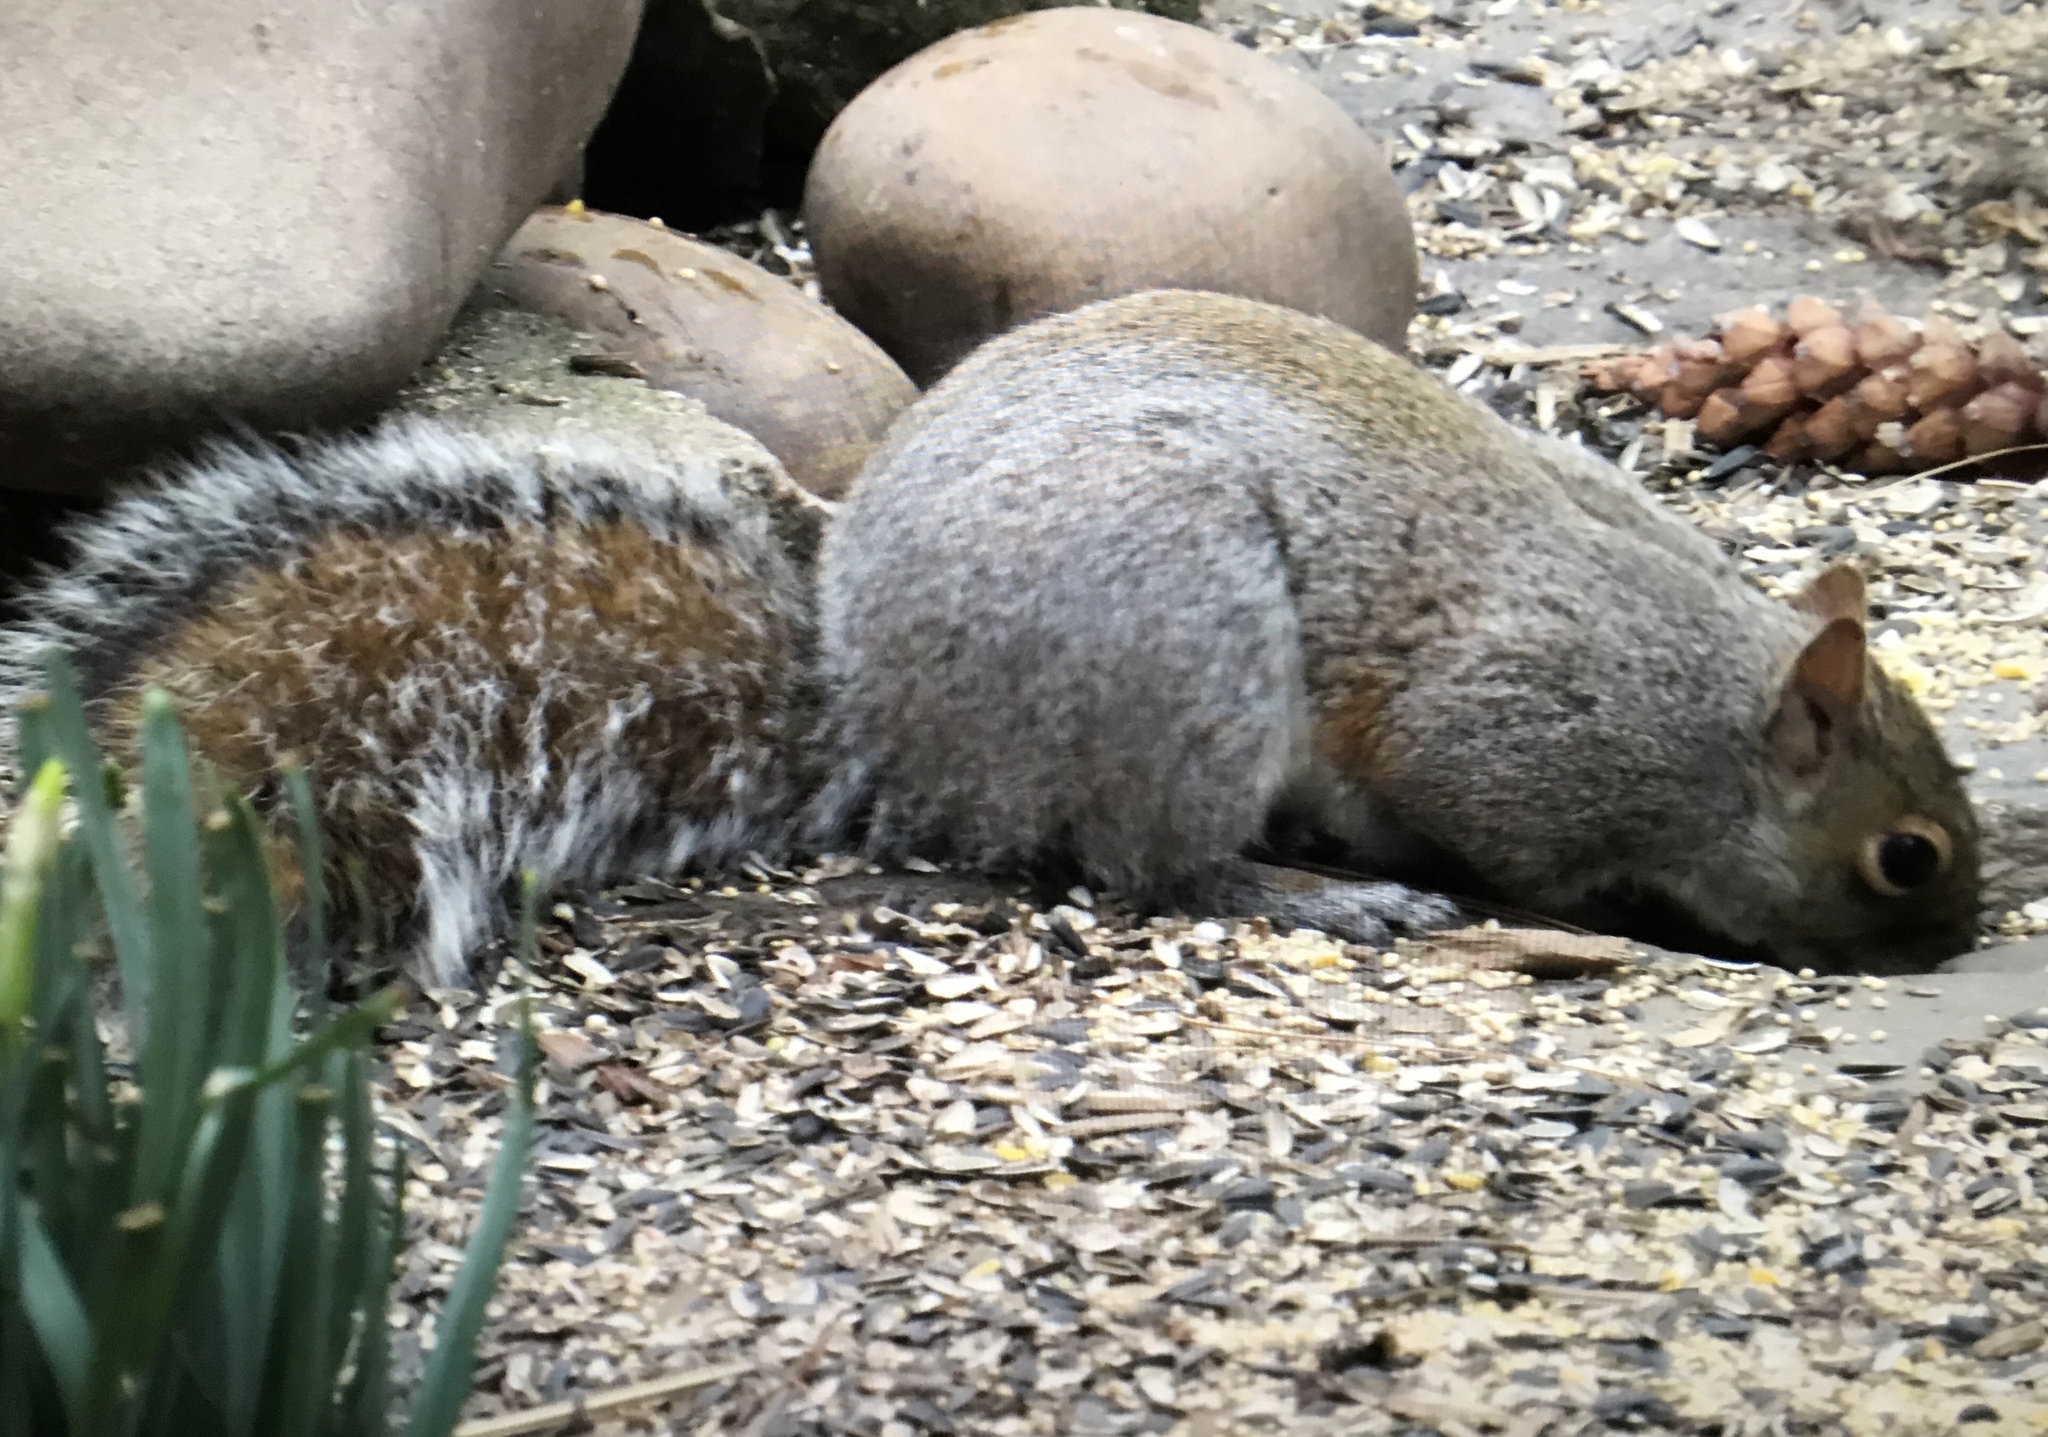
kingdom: Animalia
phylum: Chordata
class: Mammalia
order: Rodentia
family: Sciuridae
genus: Sciurus
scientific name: Sciurus carolinensis
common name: Eastern gray squirrel
